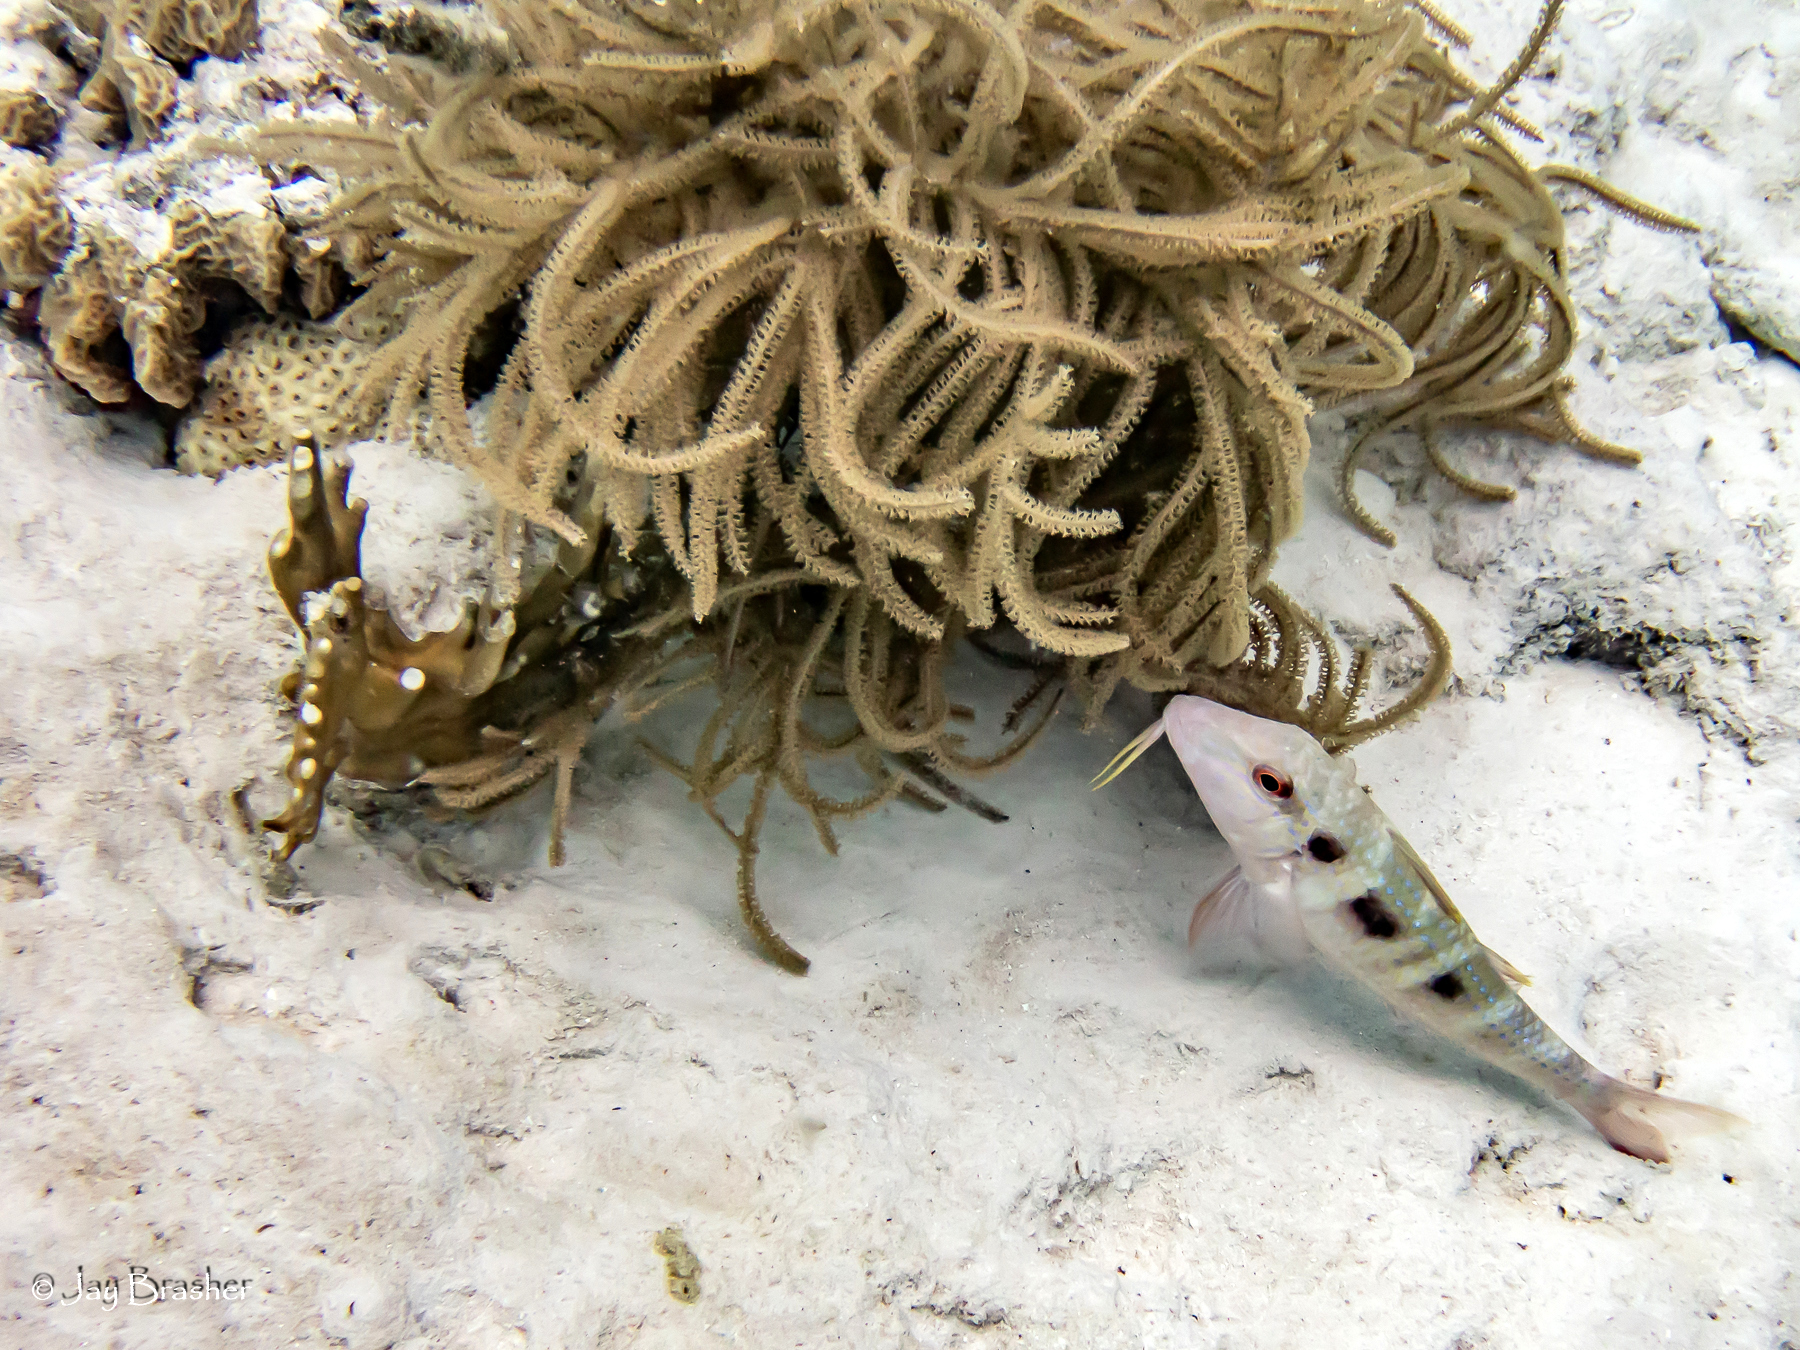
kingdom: Animalia
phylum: Chordata
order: Perciformes
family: Mullidae
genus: Pseudupeneus
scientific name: Pseudupeneus maculatus
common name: Spotted goatfish
